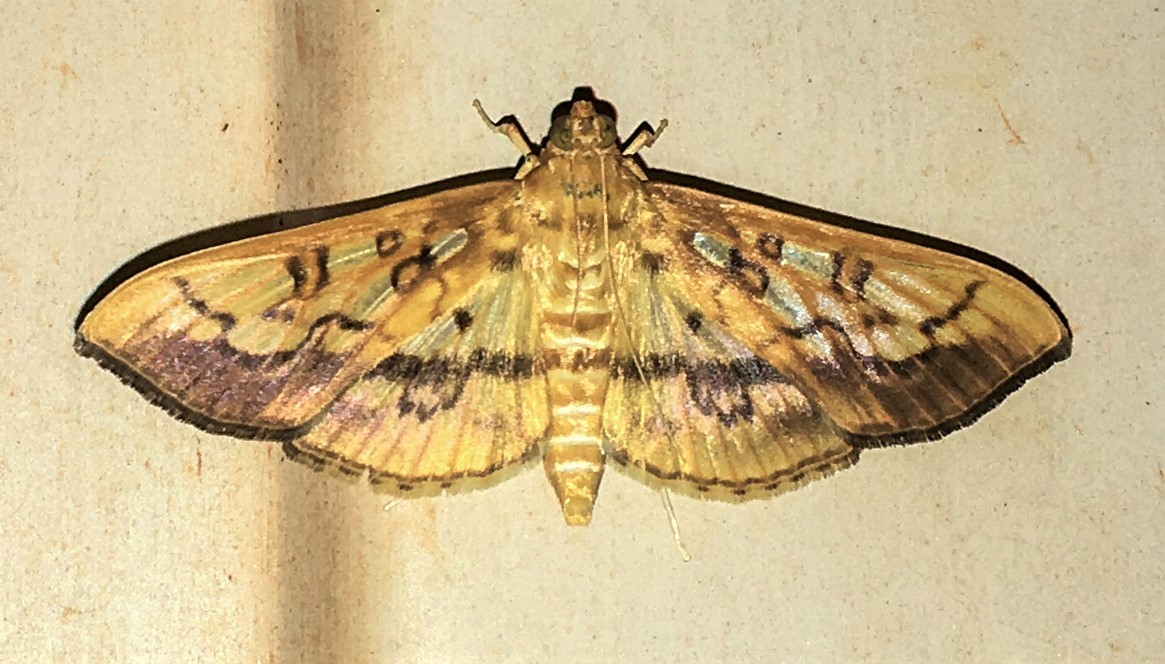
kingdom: Animalia
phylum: Arthropoda
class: Insecta
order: Lepidoptera
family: Crambidae
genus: Micromartinia
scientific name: Micromartinia mnemusalis
